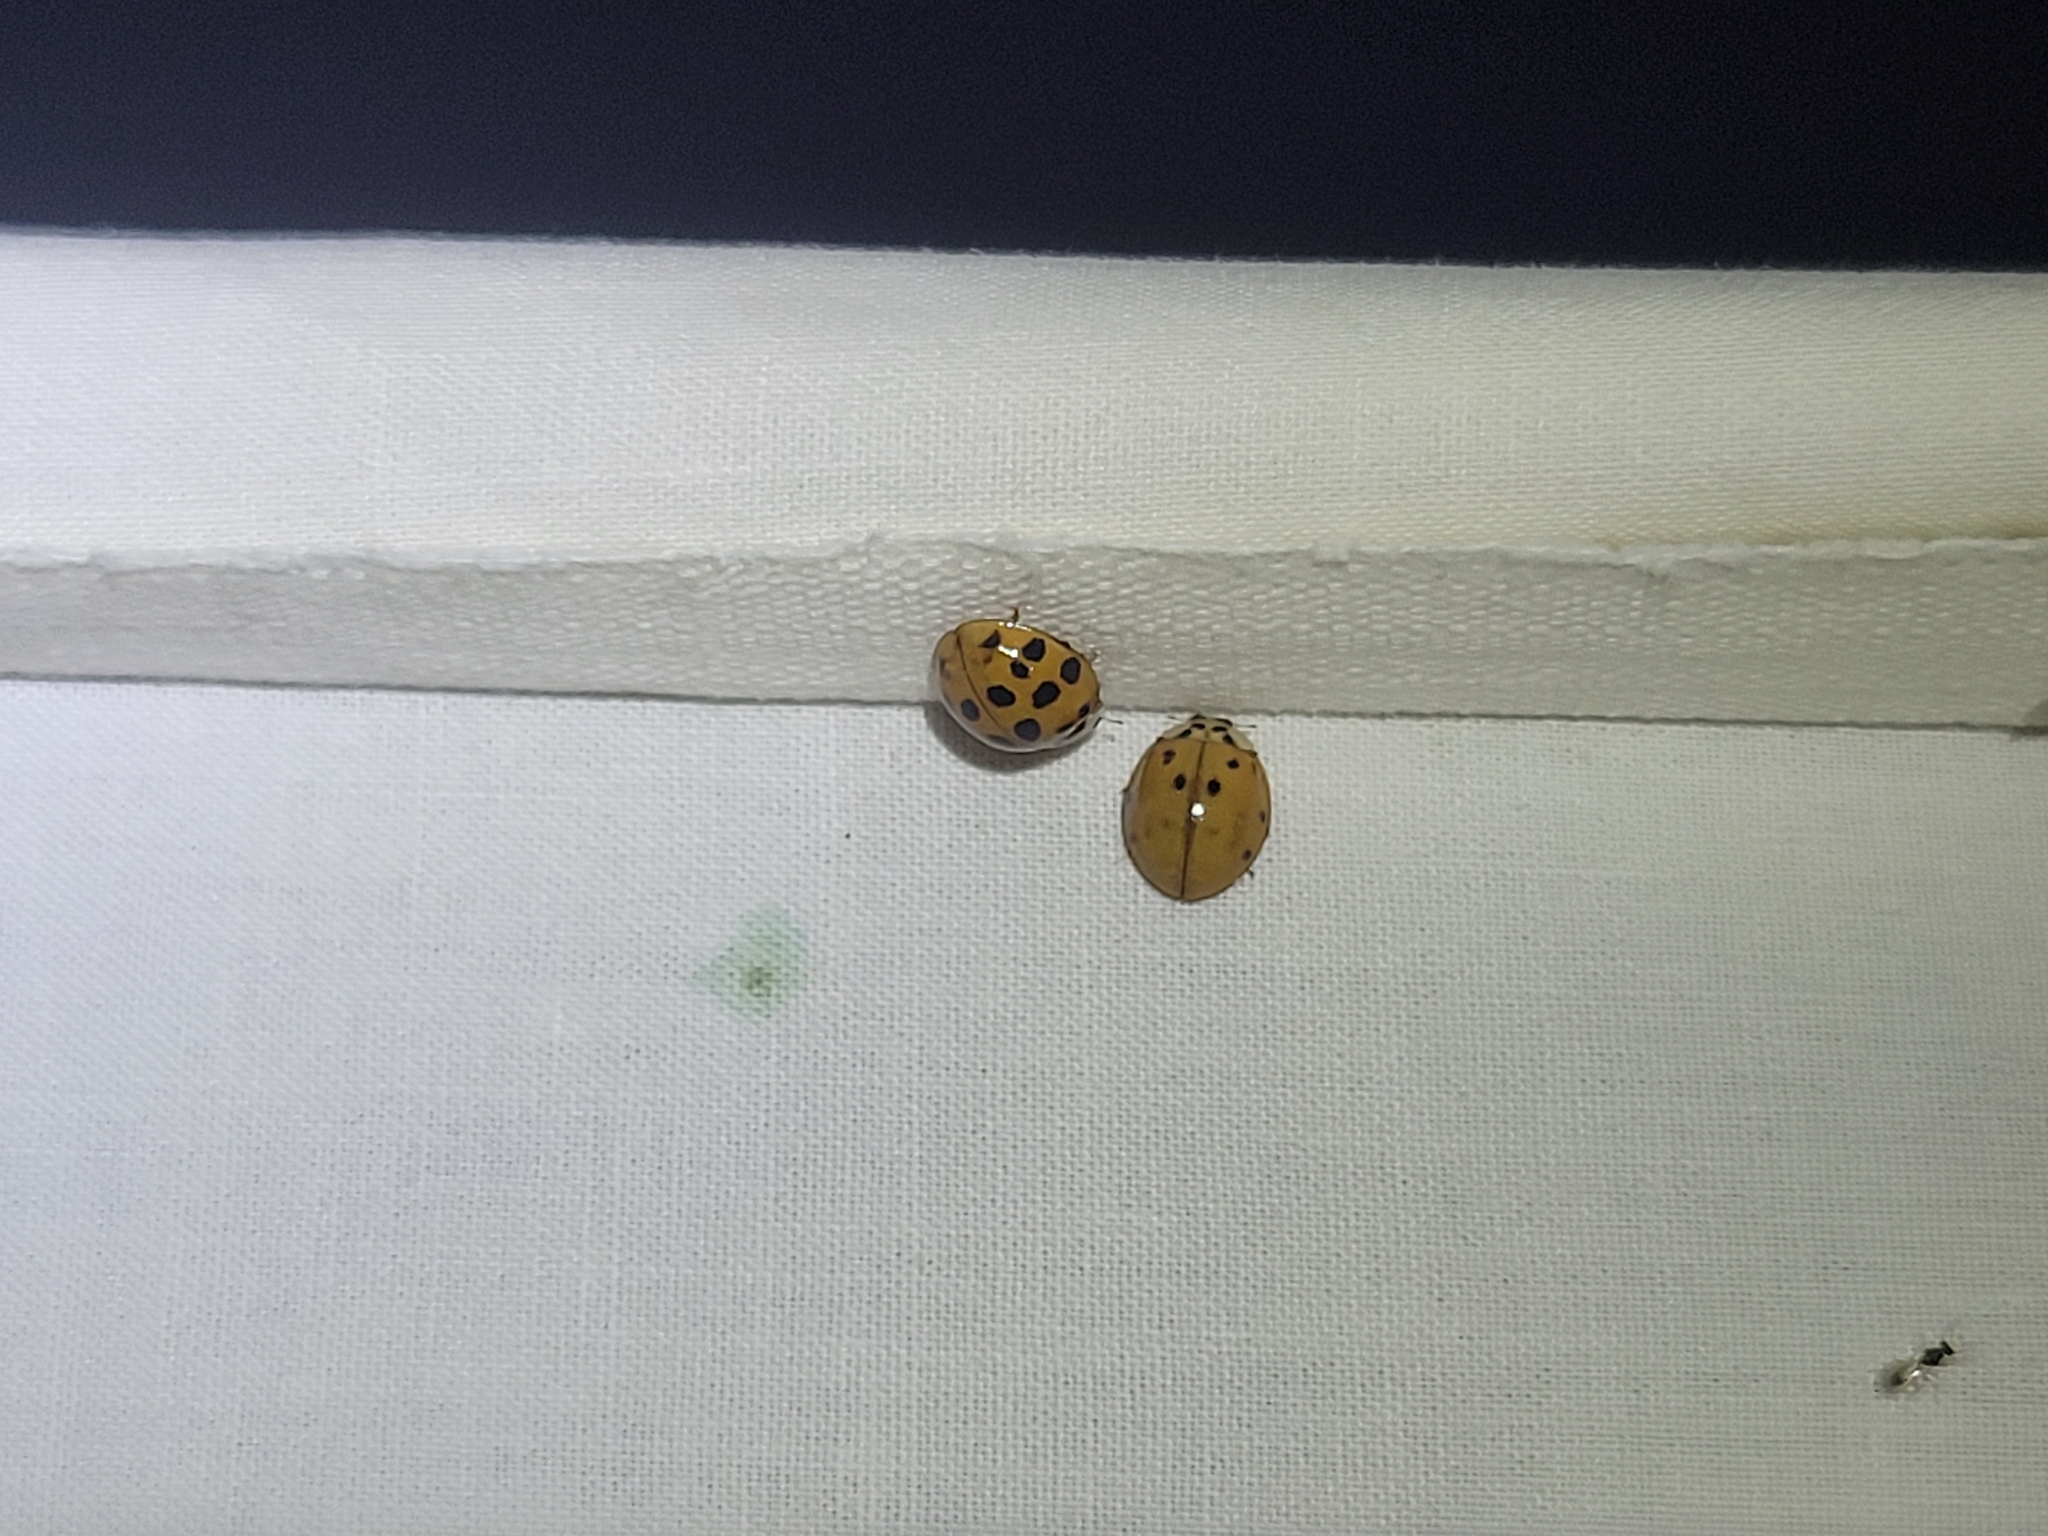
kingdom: Animalia
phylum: Arthropoda
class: Insecta
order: Coleoptera
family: Coccinellidae
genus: Harmonia
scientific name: Harmonia axyridis
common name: Harlequin ladybird
